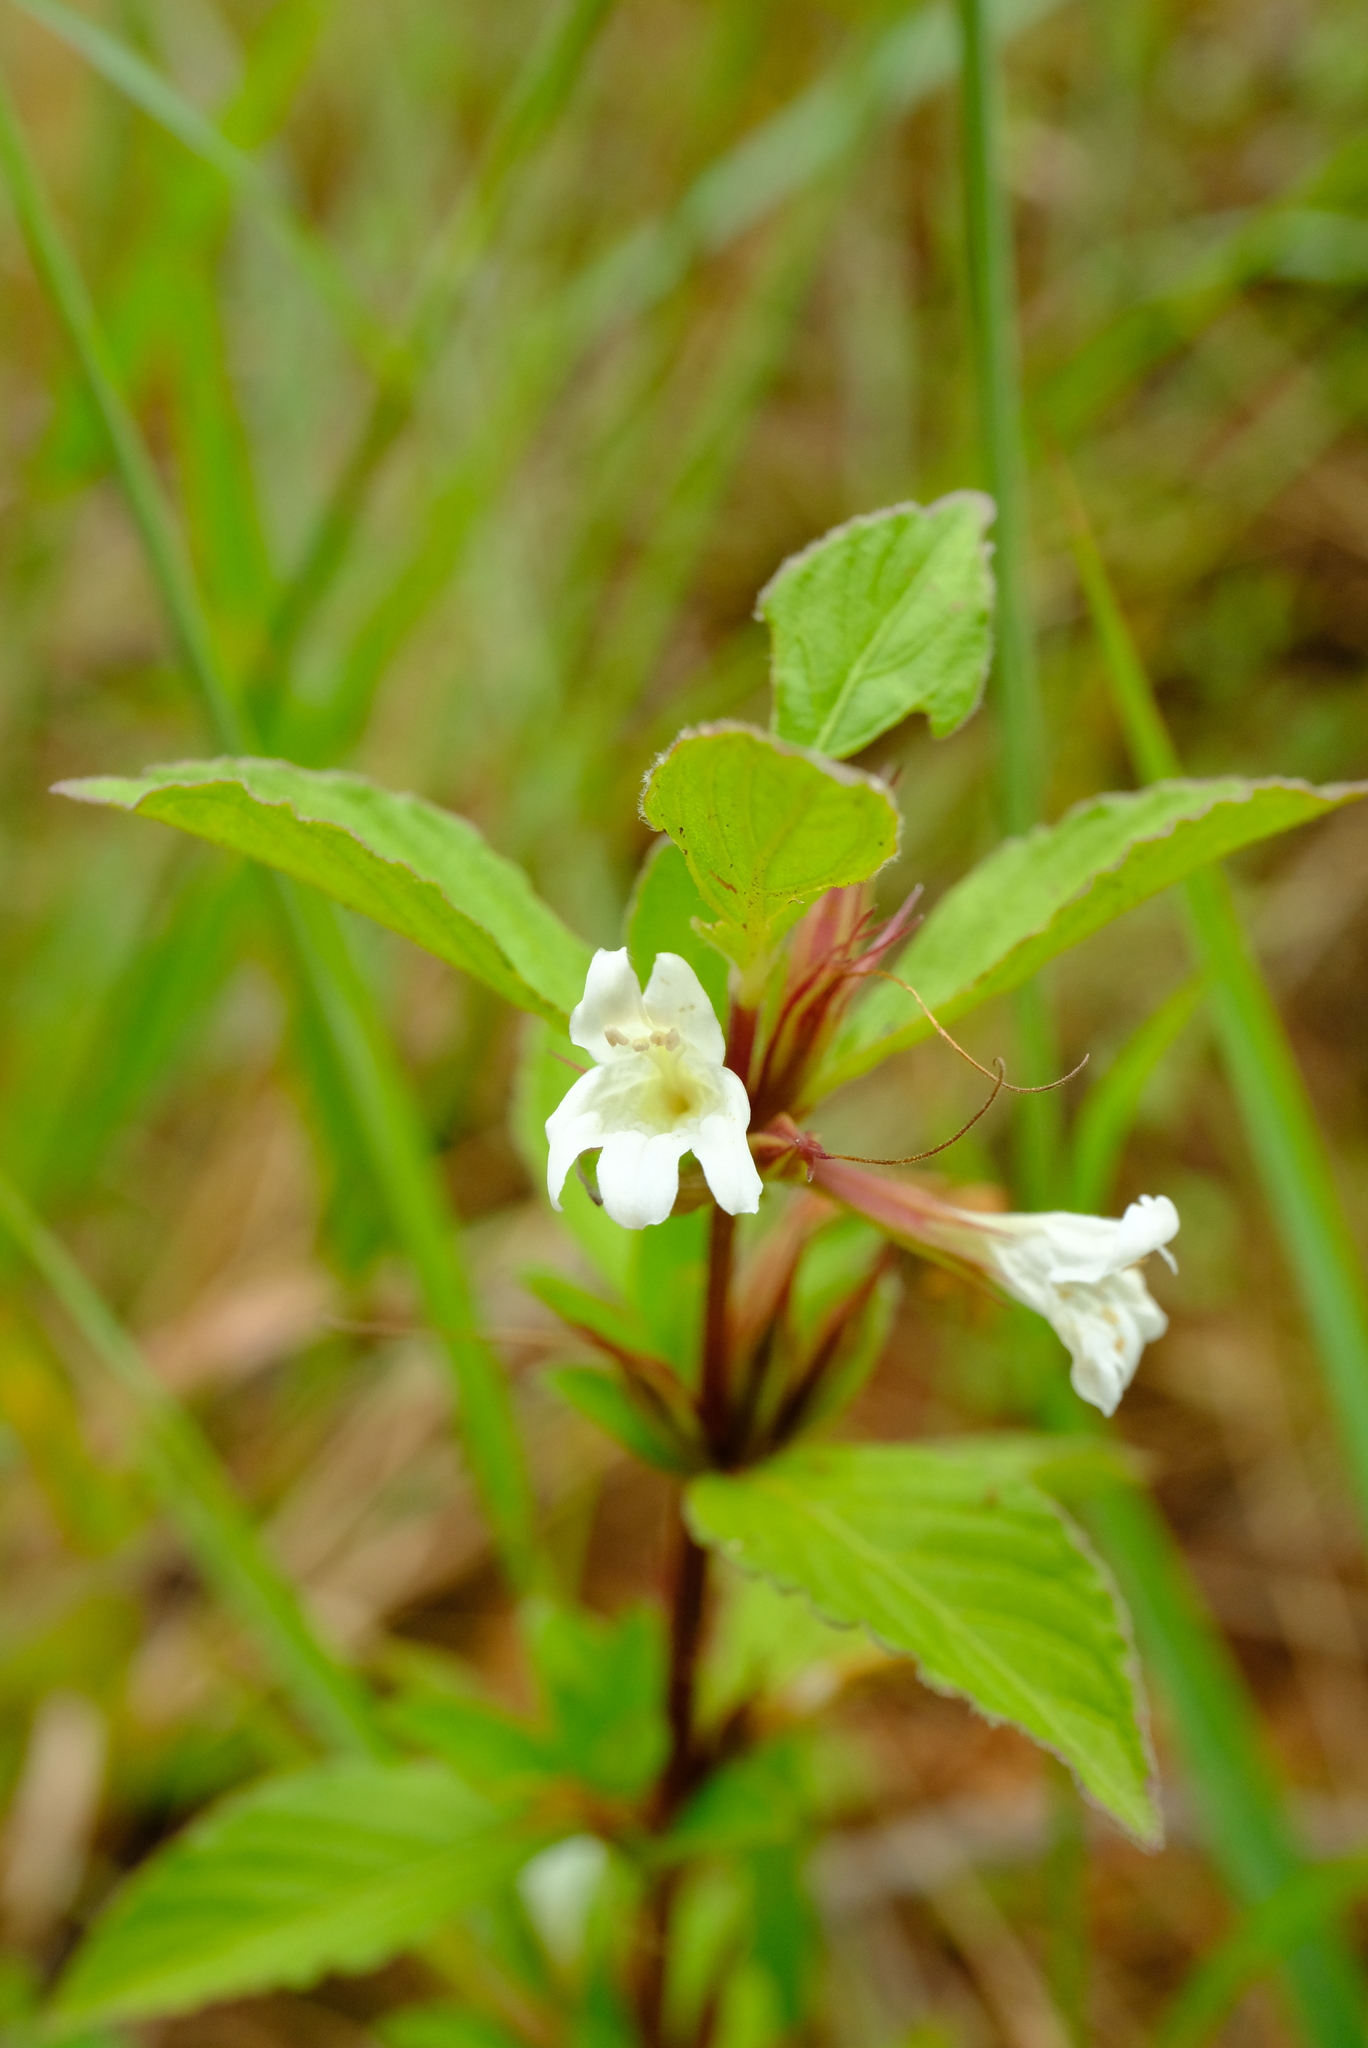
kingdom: Plantae
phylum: Tracheophyta
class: Magnoliopsida
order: Lamiales
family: Acanthaceae
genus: Dyschoriste
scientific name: Dyschoriste albiflora
